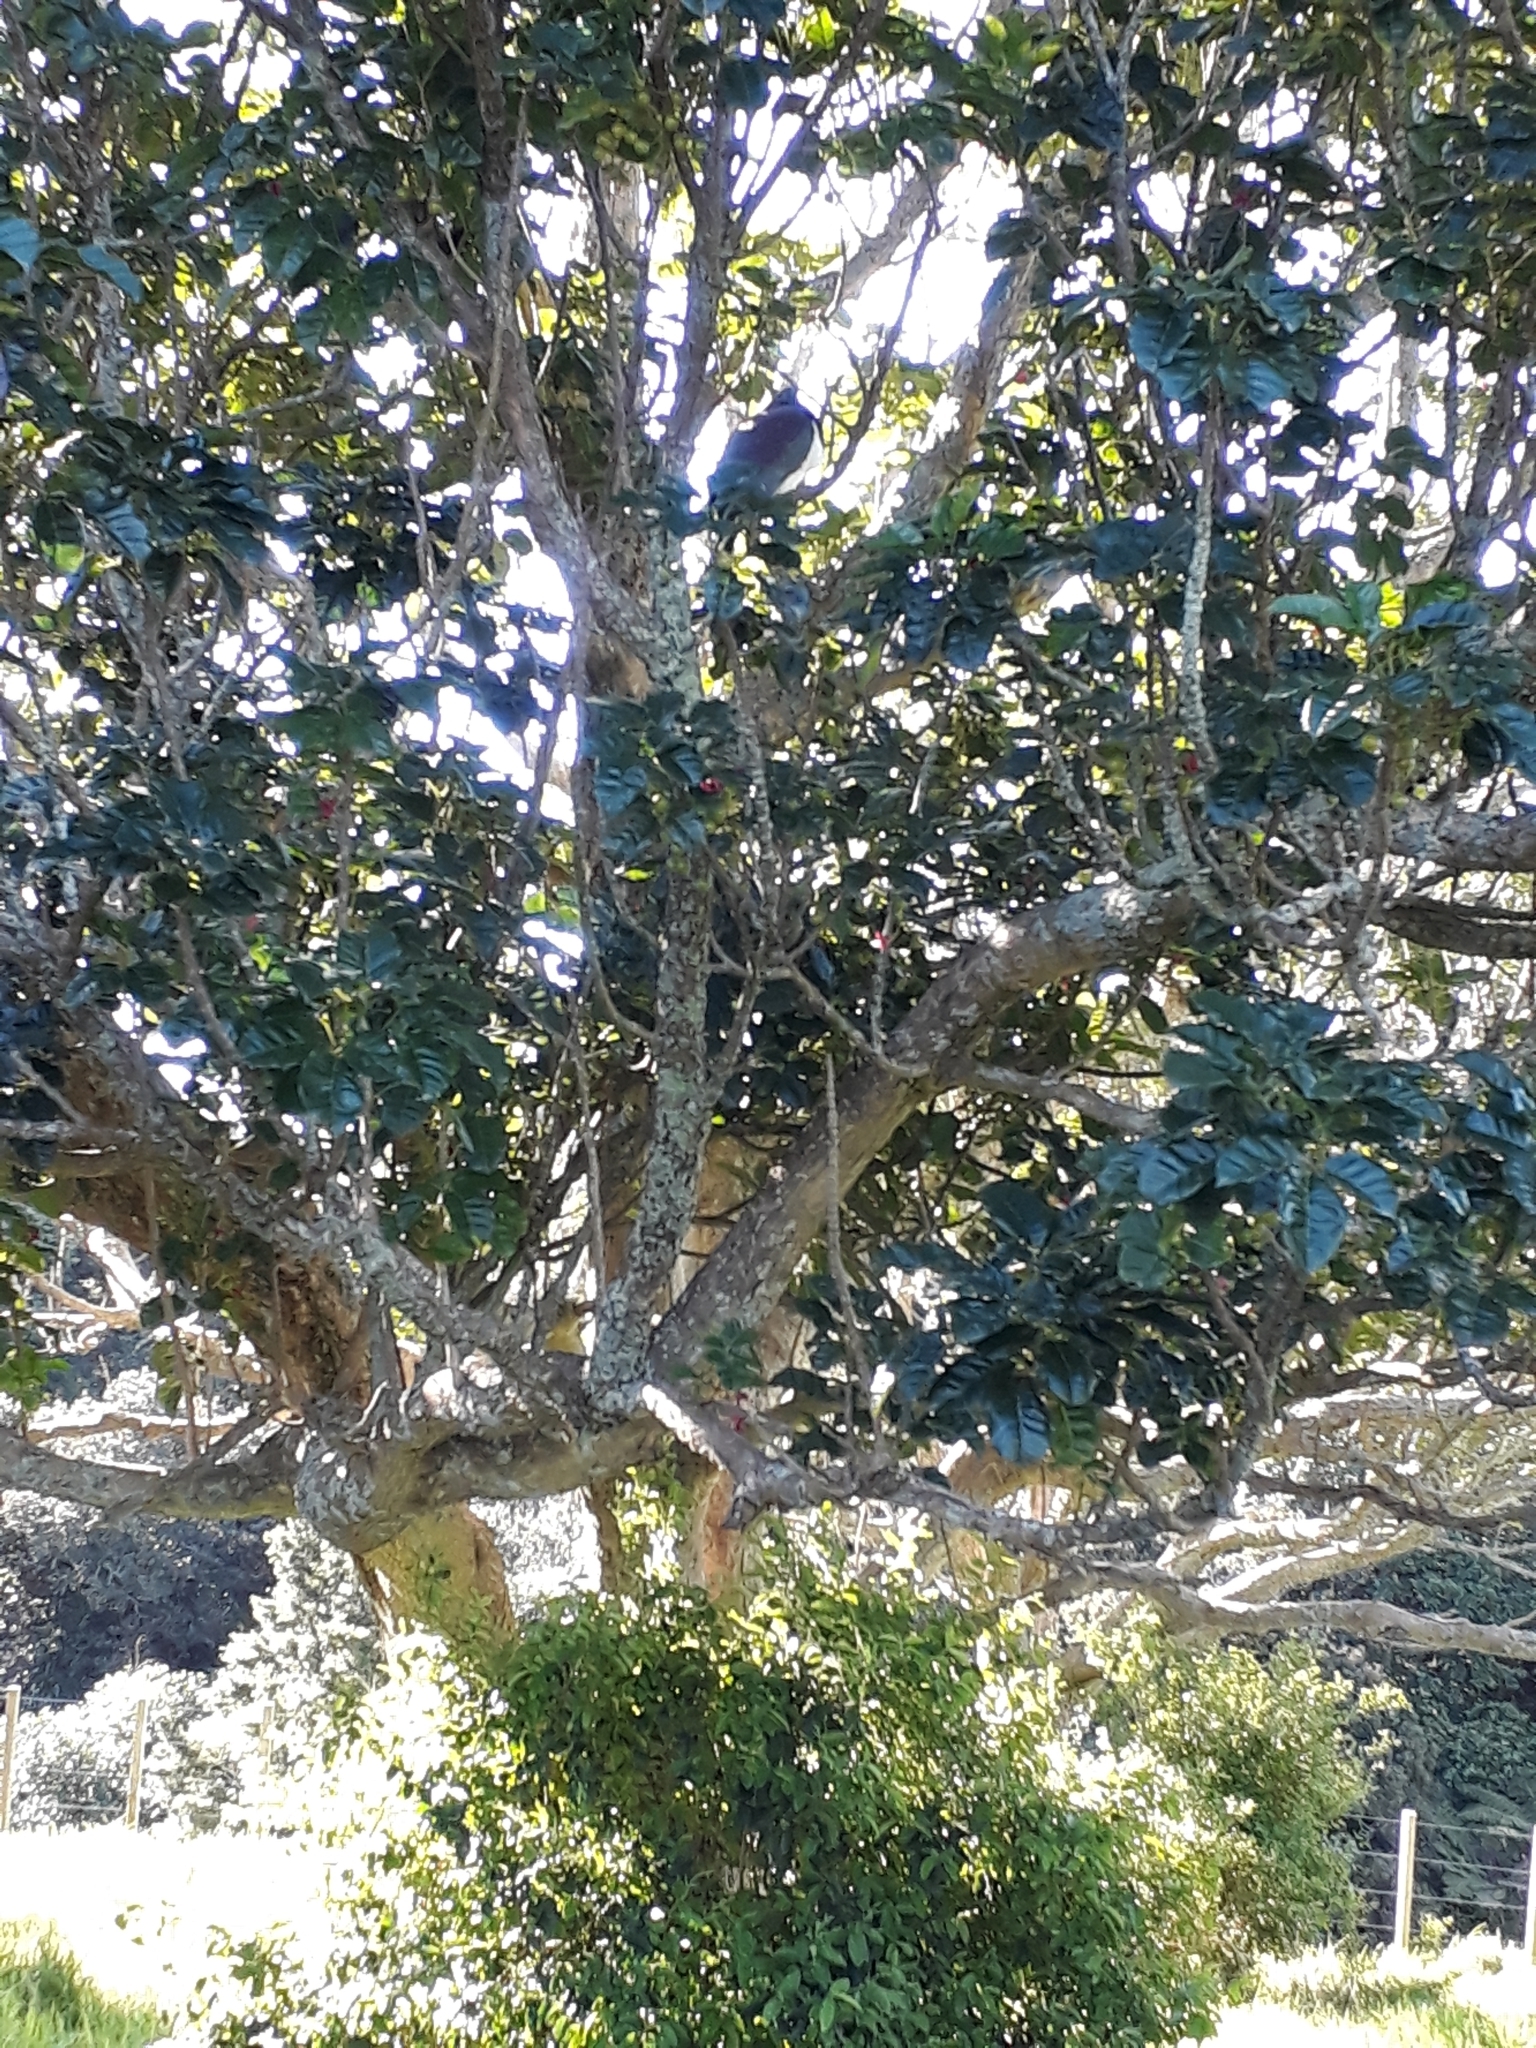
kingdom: Animalia
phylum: Chordata
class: Aves
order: Columbiformes
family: Columbidae
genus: Hemiphaga
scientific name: Hemiphaga novaeseelandiae
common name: New zealand pigeon
